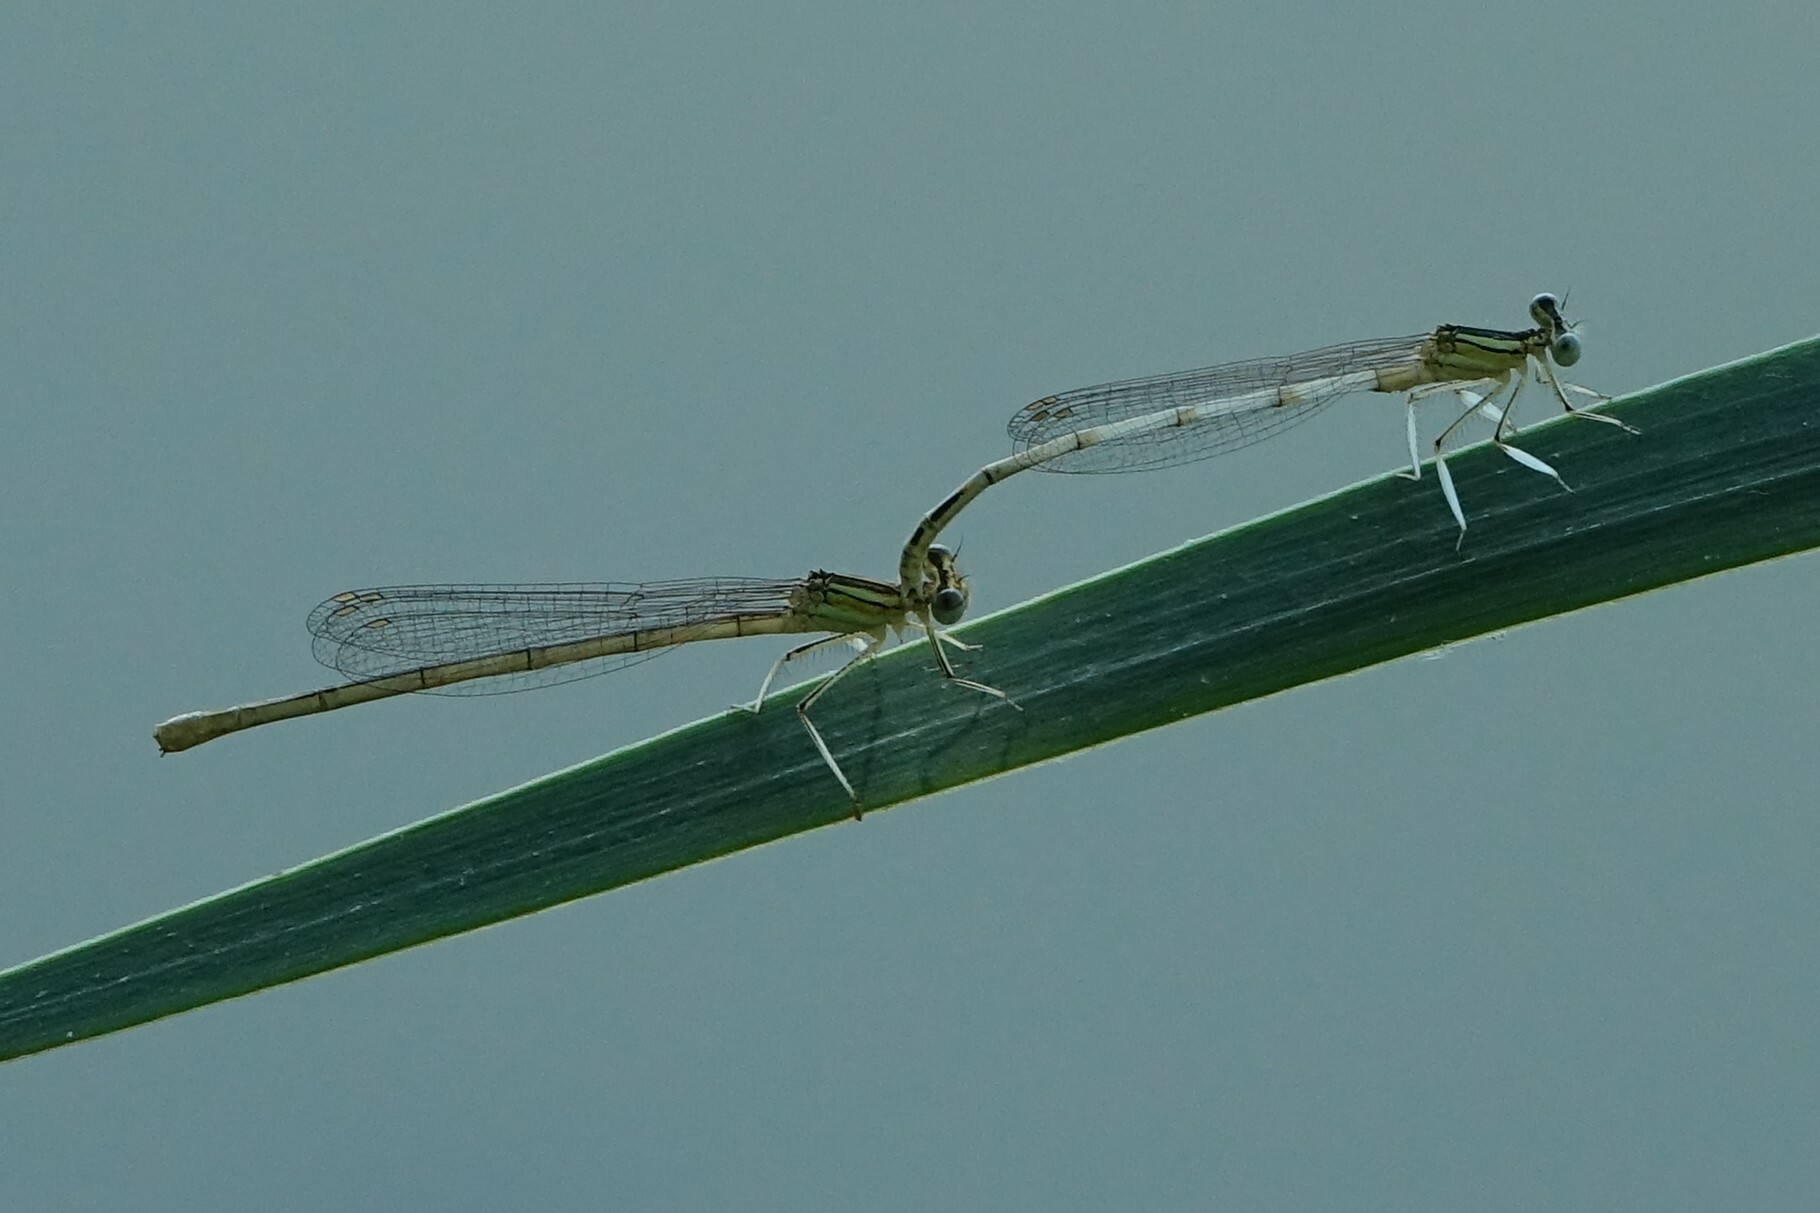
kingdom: Animalia
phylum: Arthropoda
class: Insecta
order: Odonata
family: Platycnemididae
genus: Platycnemis
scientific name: Platycnemis latipes
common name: White featherleg
